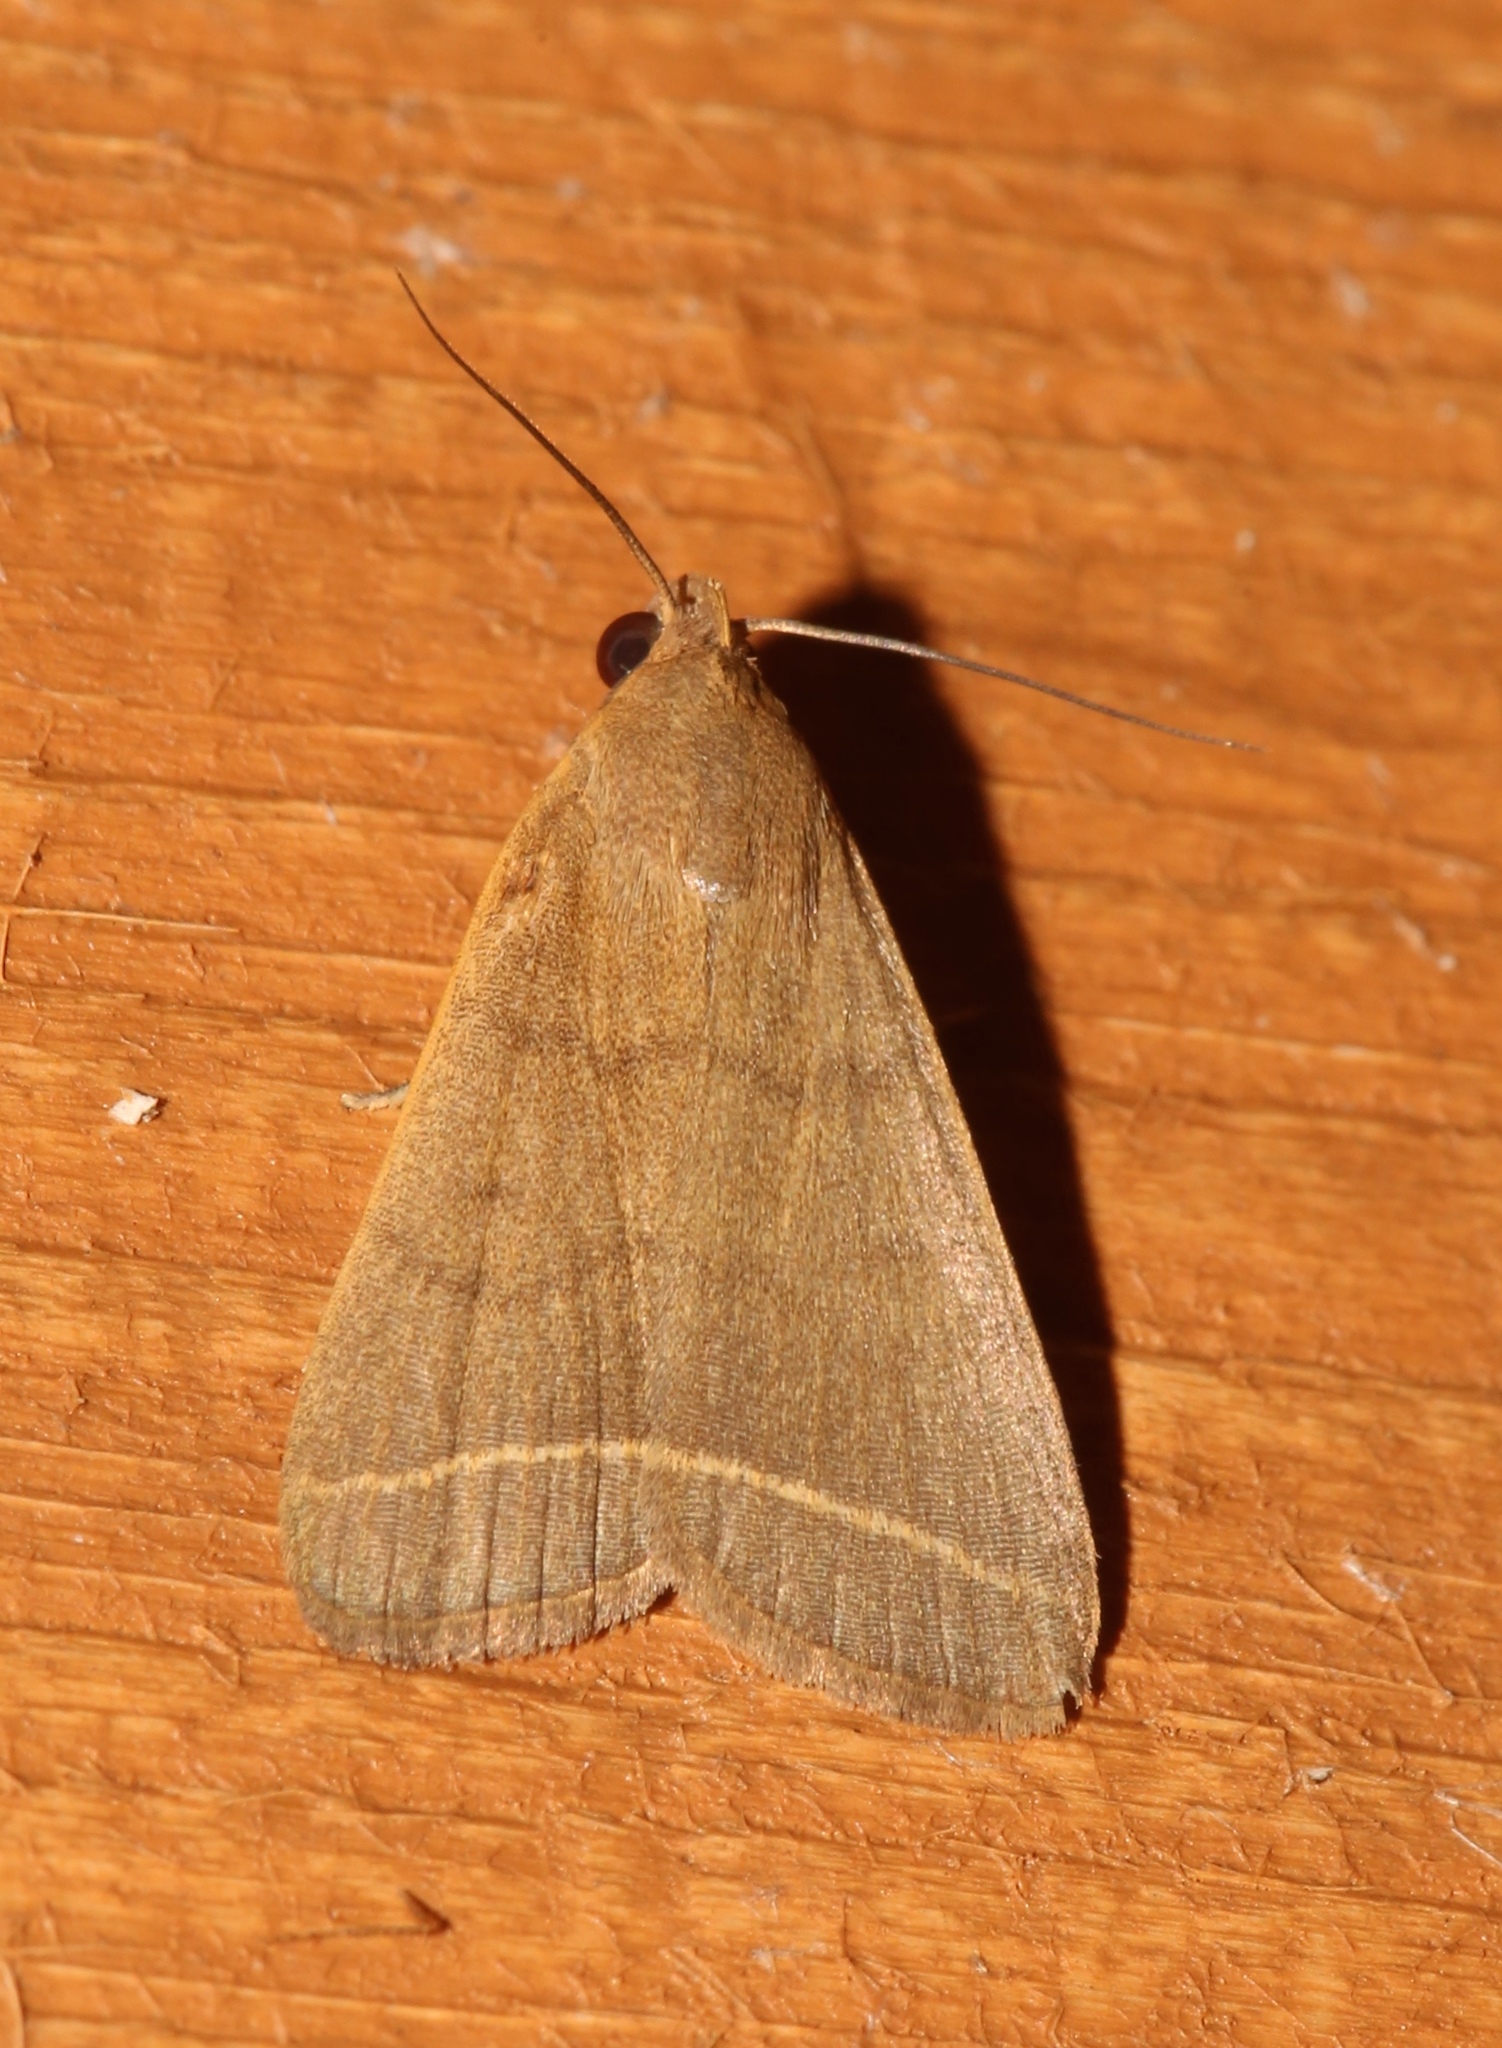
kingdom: Animalia
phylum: Arthropoda
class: Insecta
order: Lepidoptera
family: Erebidae
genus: Simplicia
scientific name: Simplicia cornicalis
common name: Tiki hut litter moth
